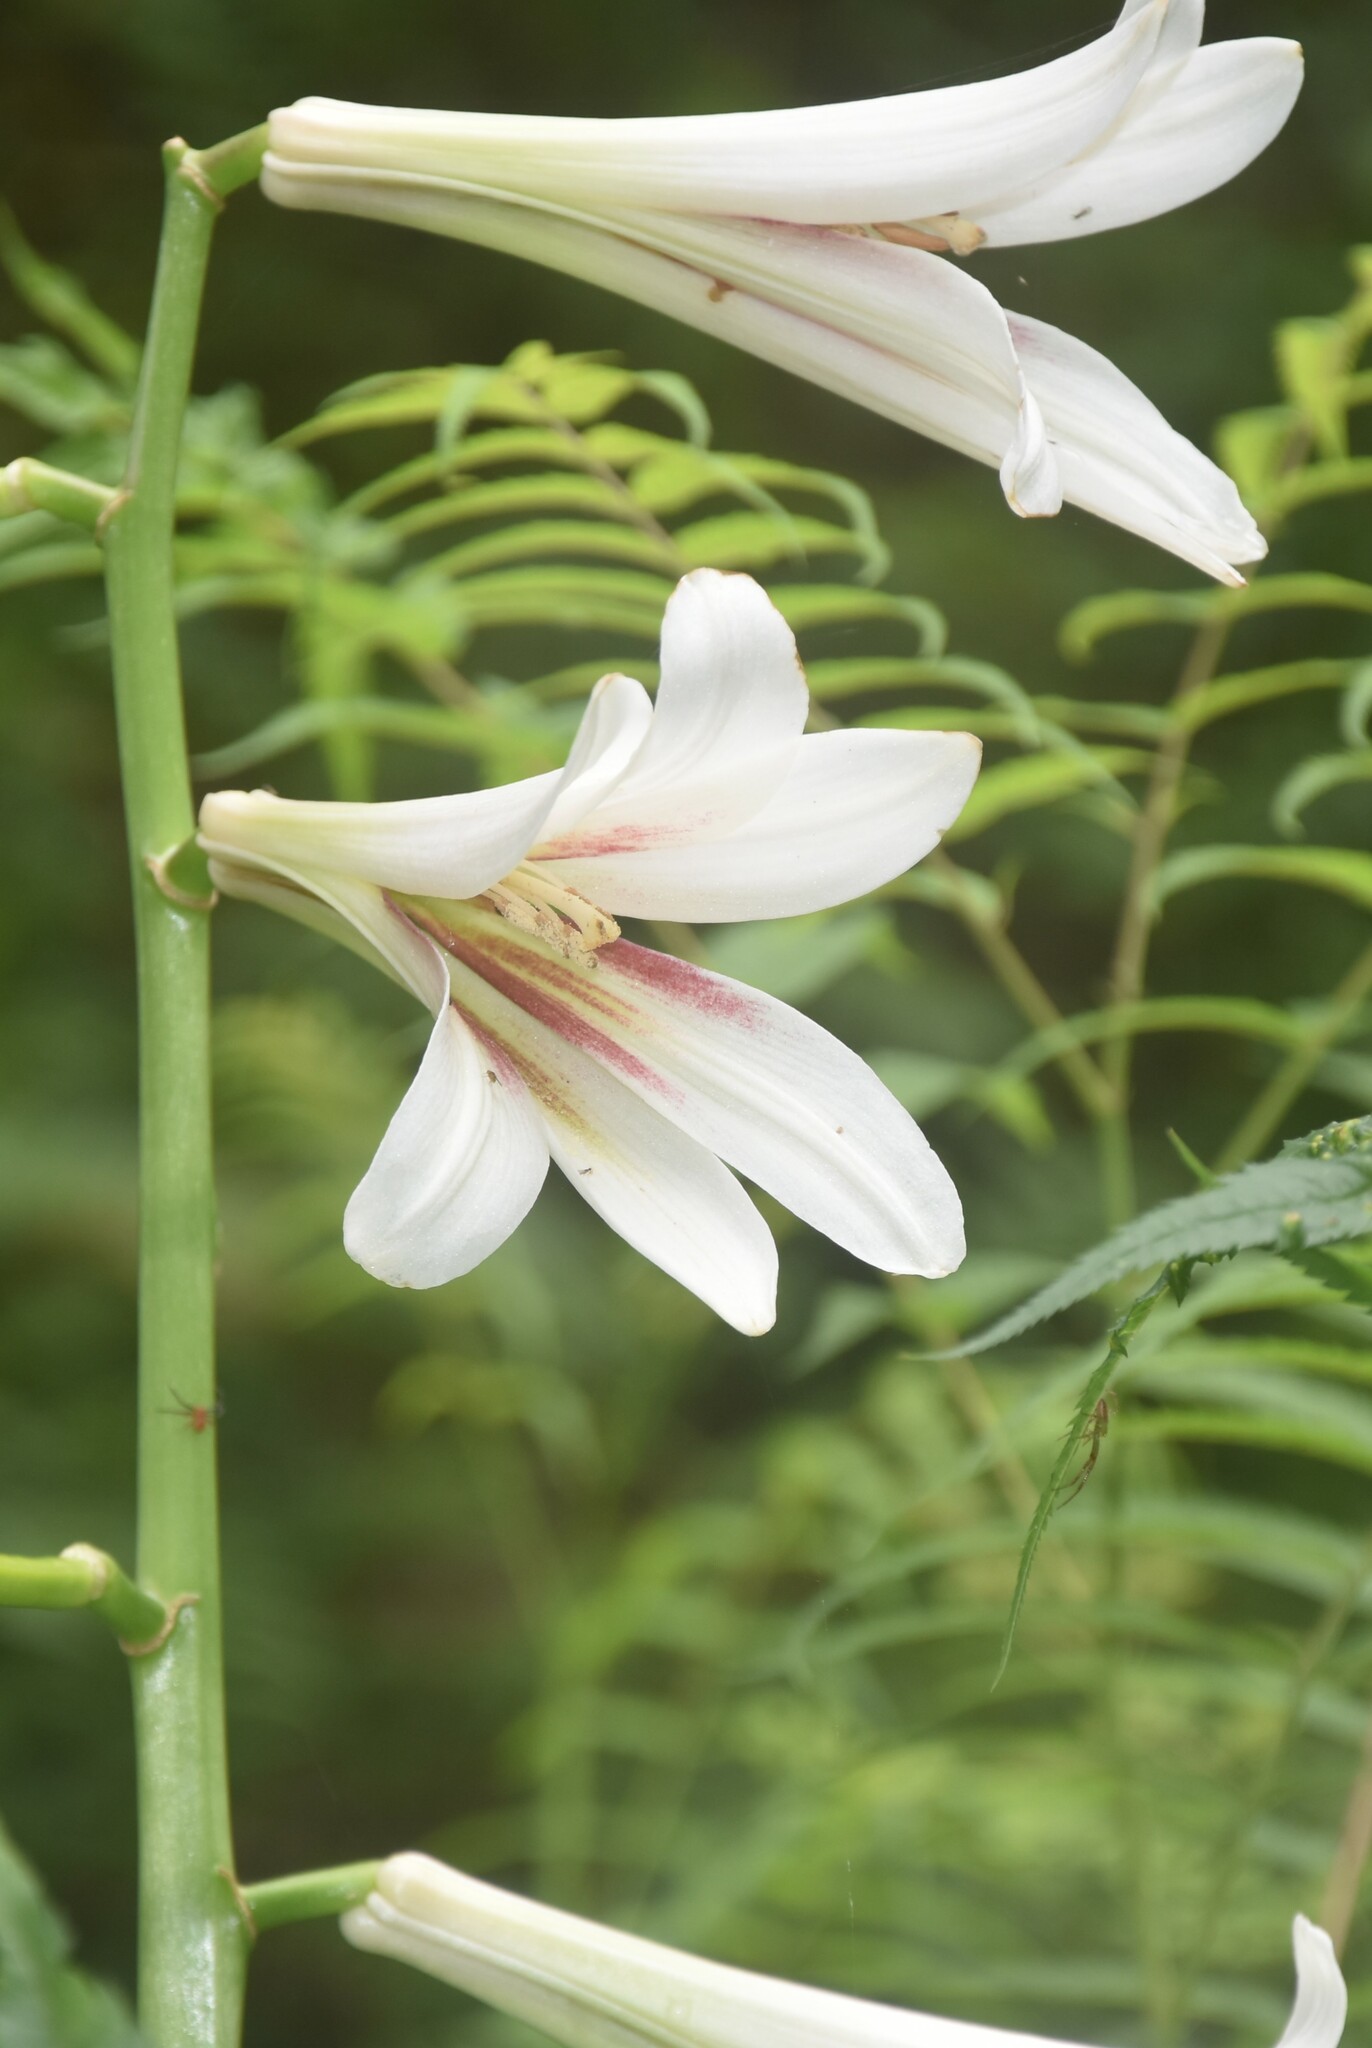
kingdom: Plantae
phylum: Tracheophyta
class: Liliopsida
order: Liliales
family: Liliaceae
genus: Cardiocrinum
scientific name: Cardiocrinum giganteum
